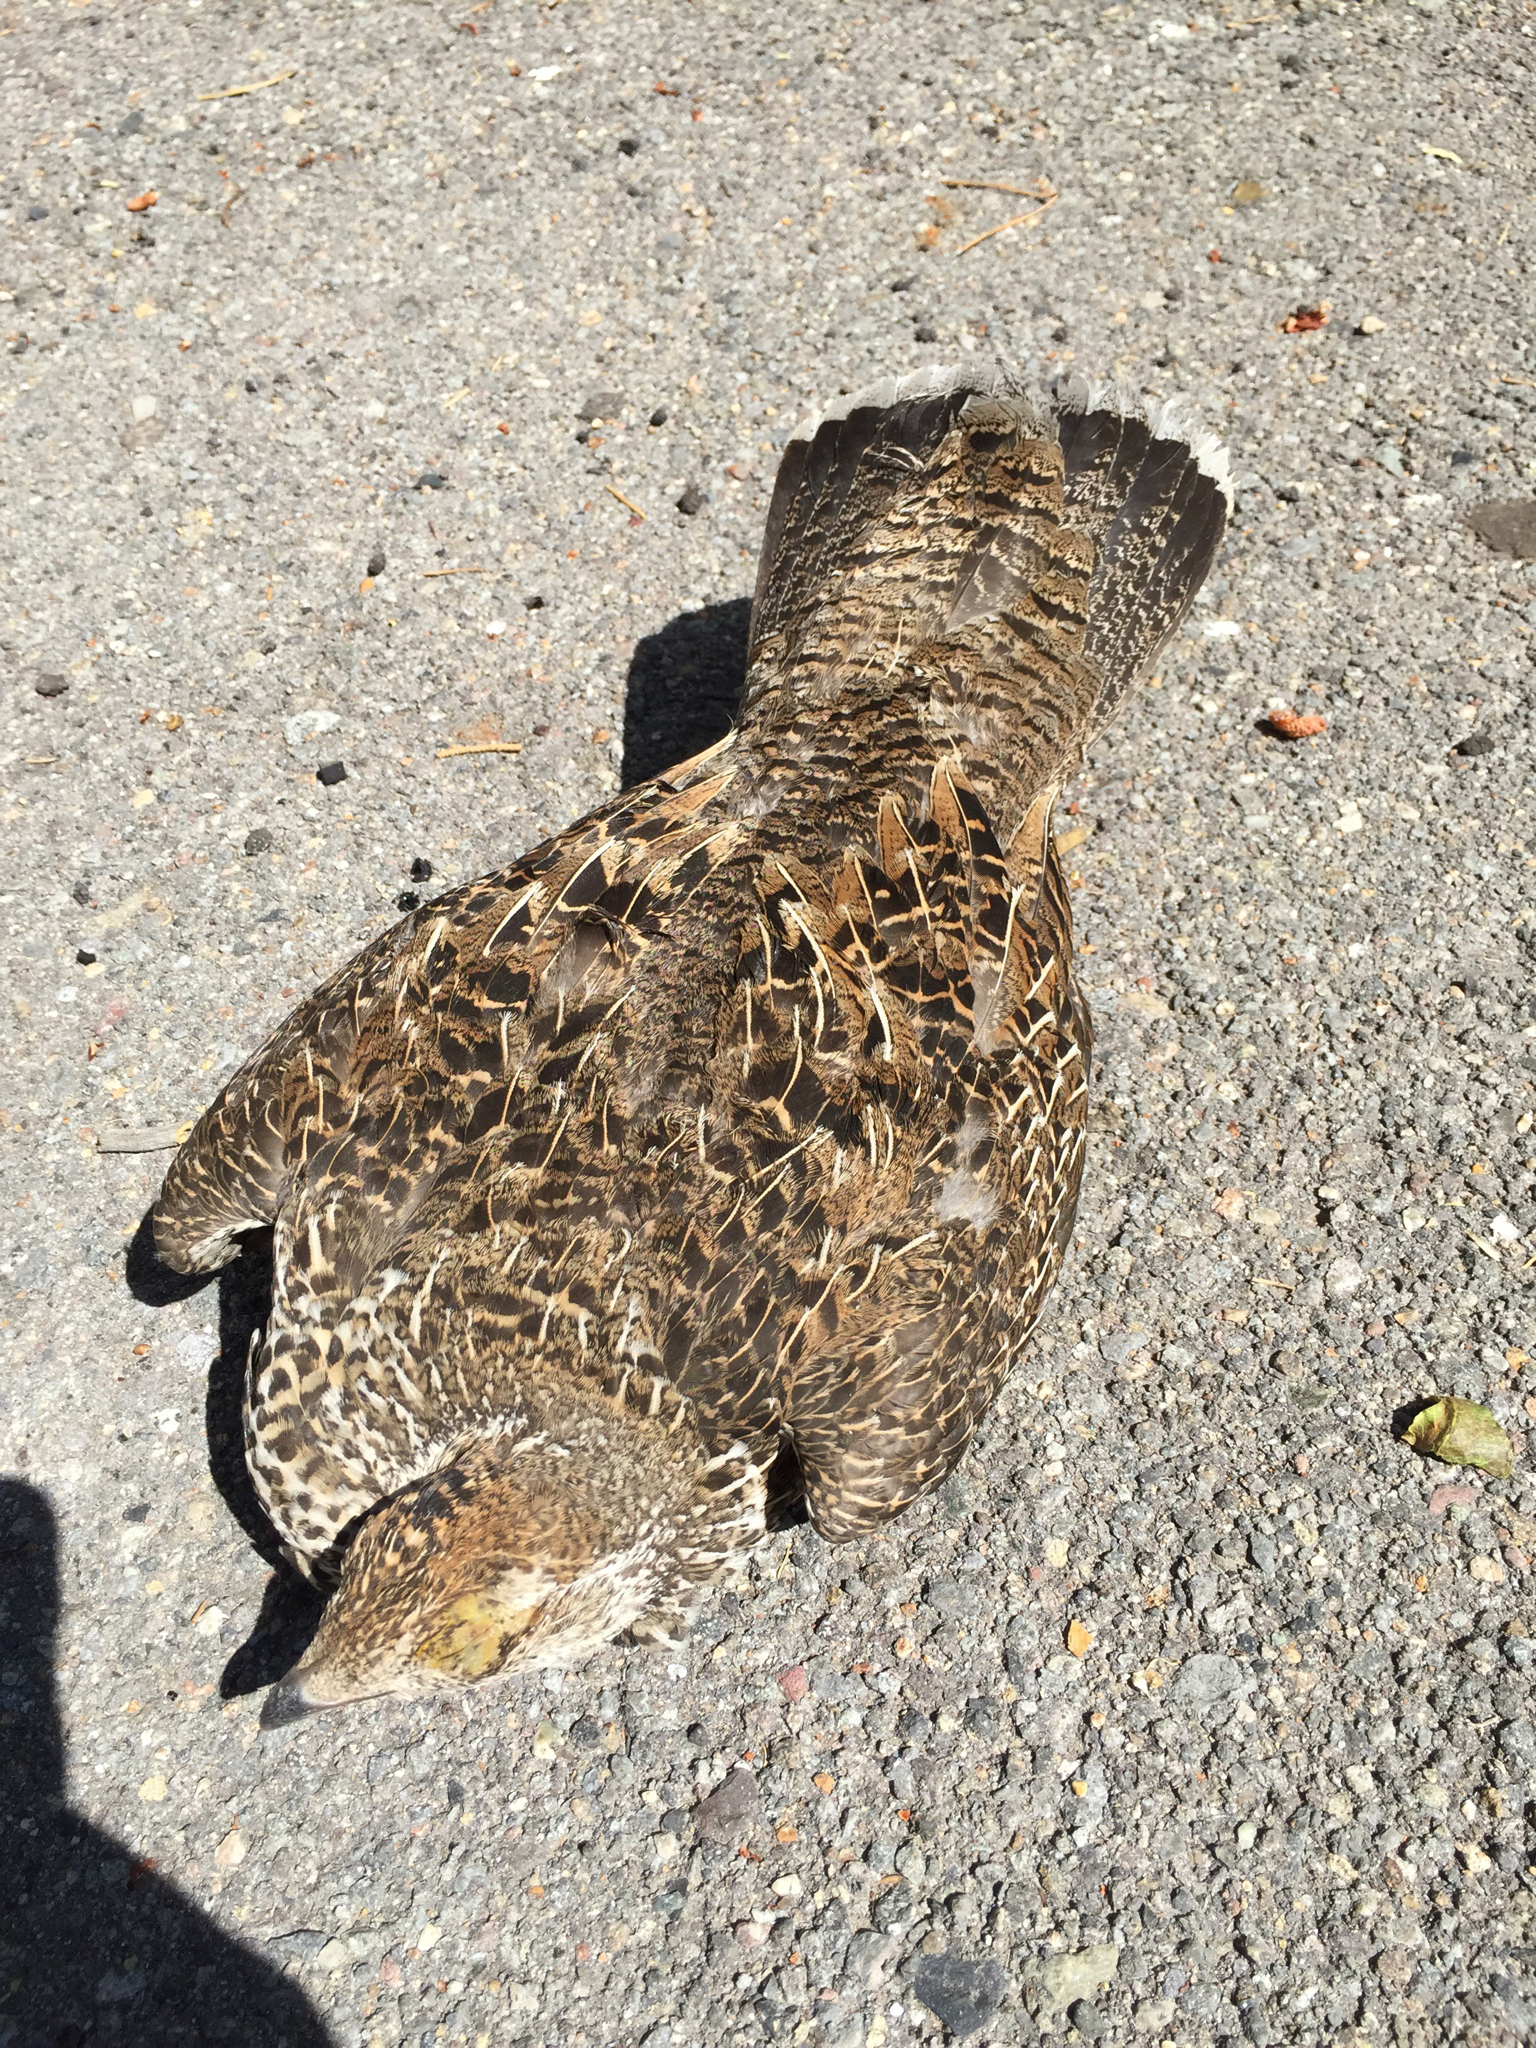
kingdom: Animalia
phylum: Chordata
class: Aves
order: Galliformes
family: Phasianidae
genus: Dendragapus
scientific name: Dendragapus fuliginosus
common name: Sooty grouse
